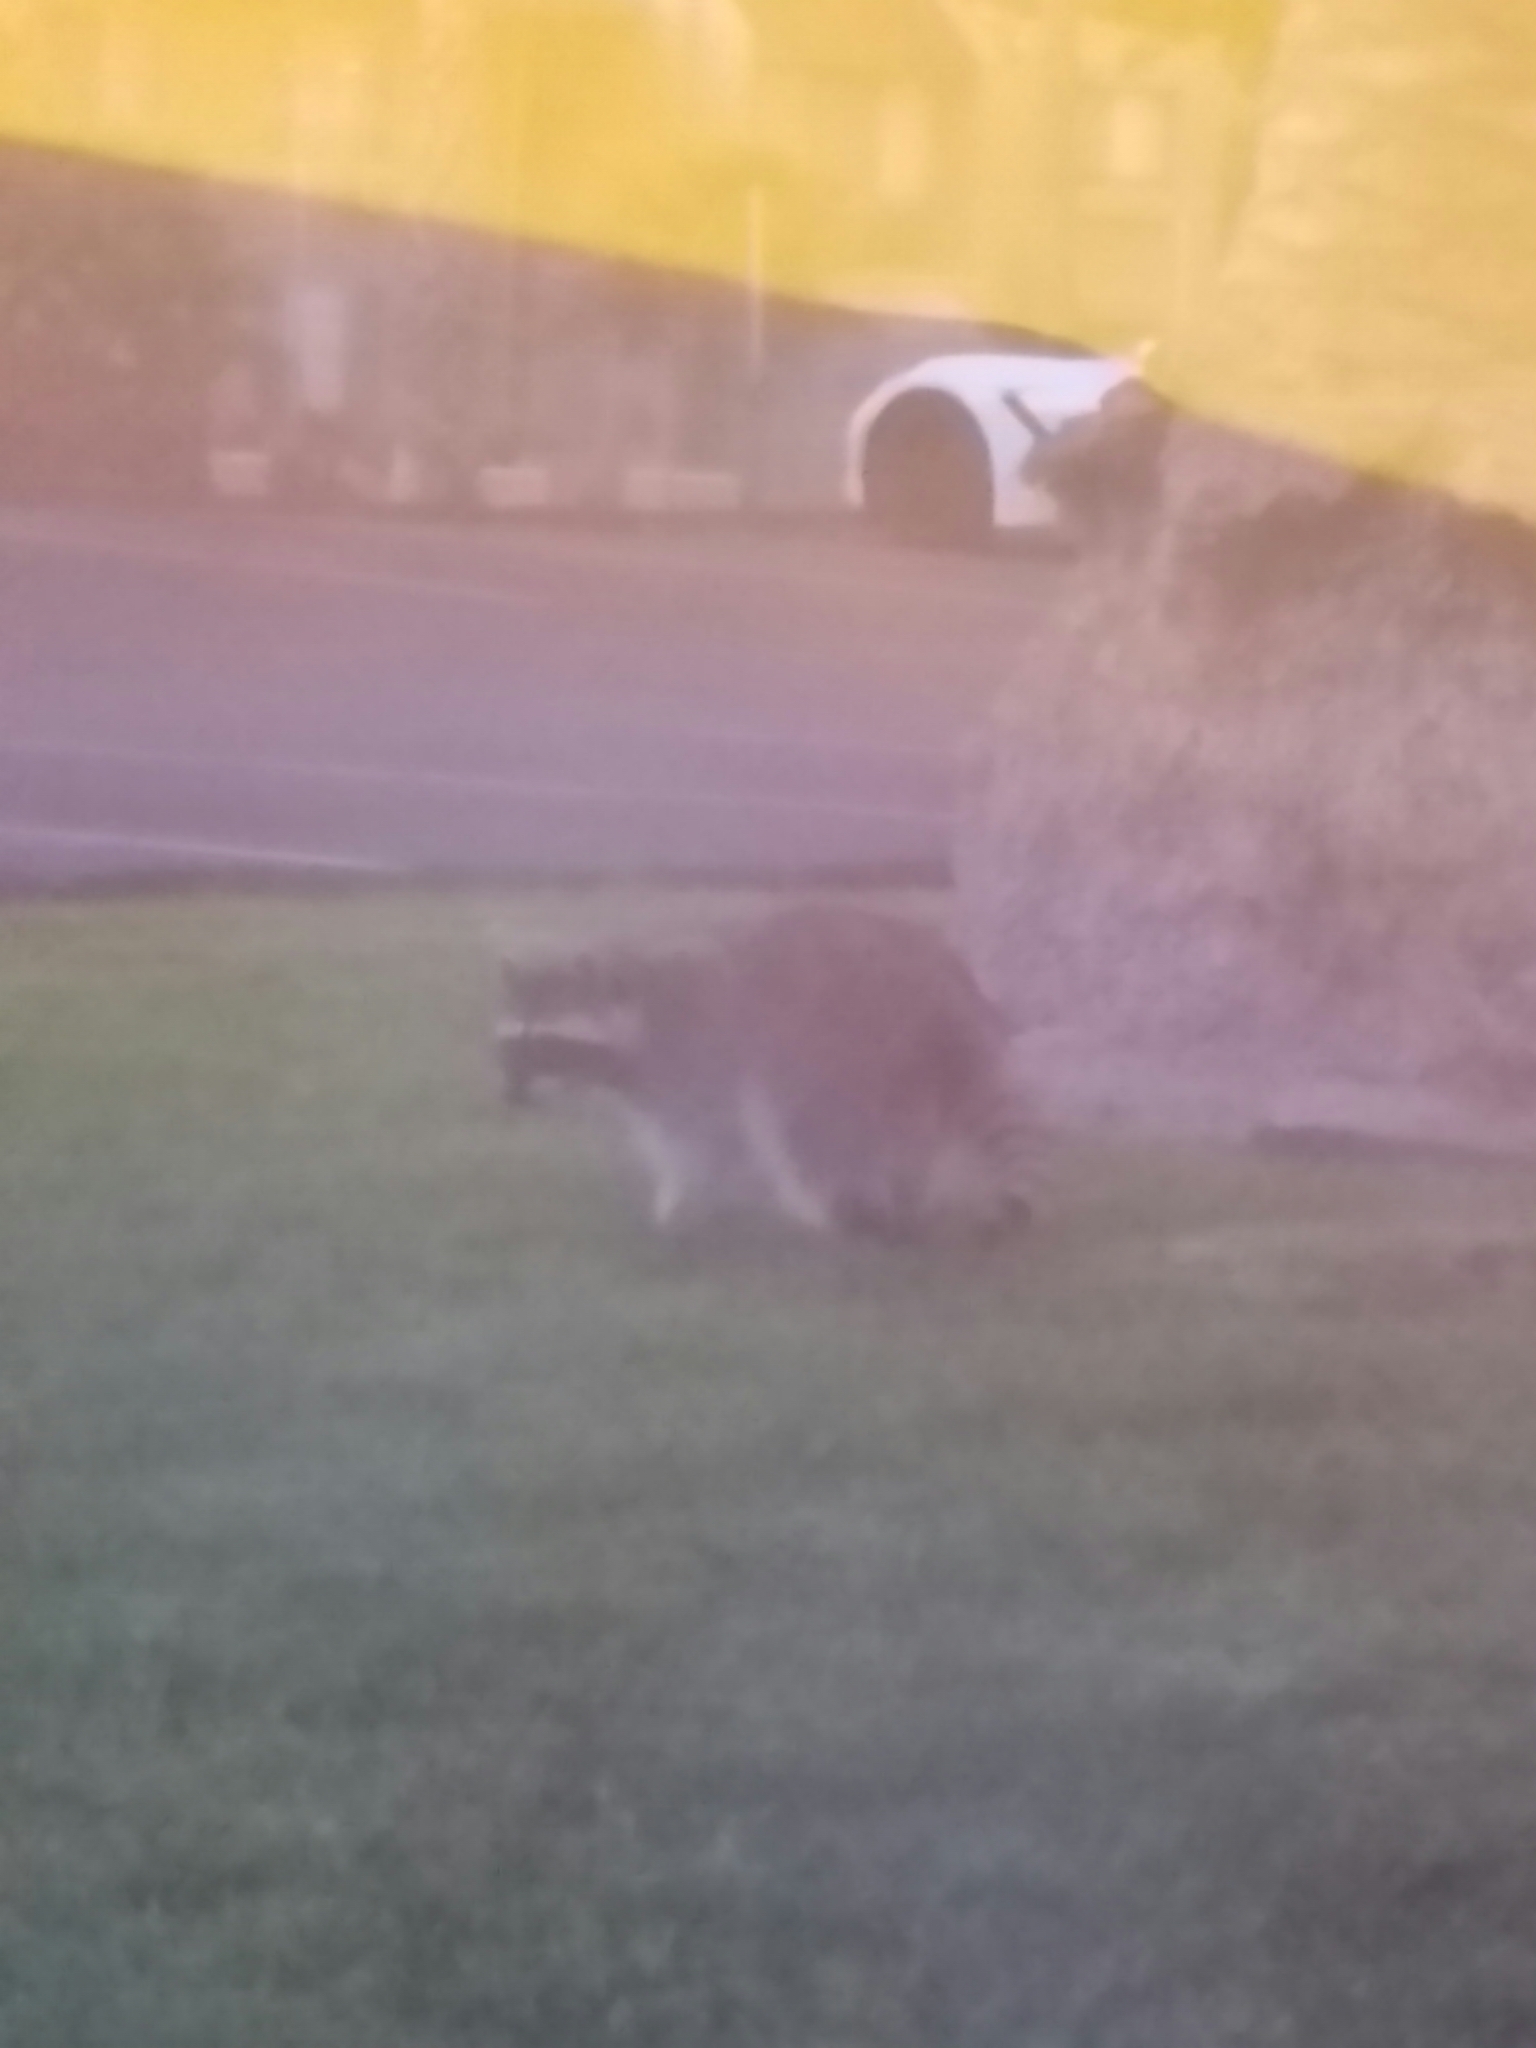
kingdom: Animalia
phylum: Chordata
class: Mammalia
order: Carnivora
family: Procyonidae
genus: Procyon
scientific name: Procyon lotor
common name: Raccoon
